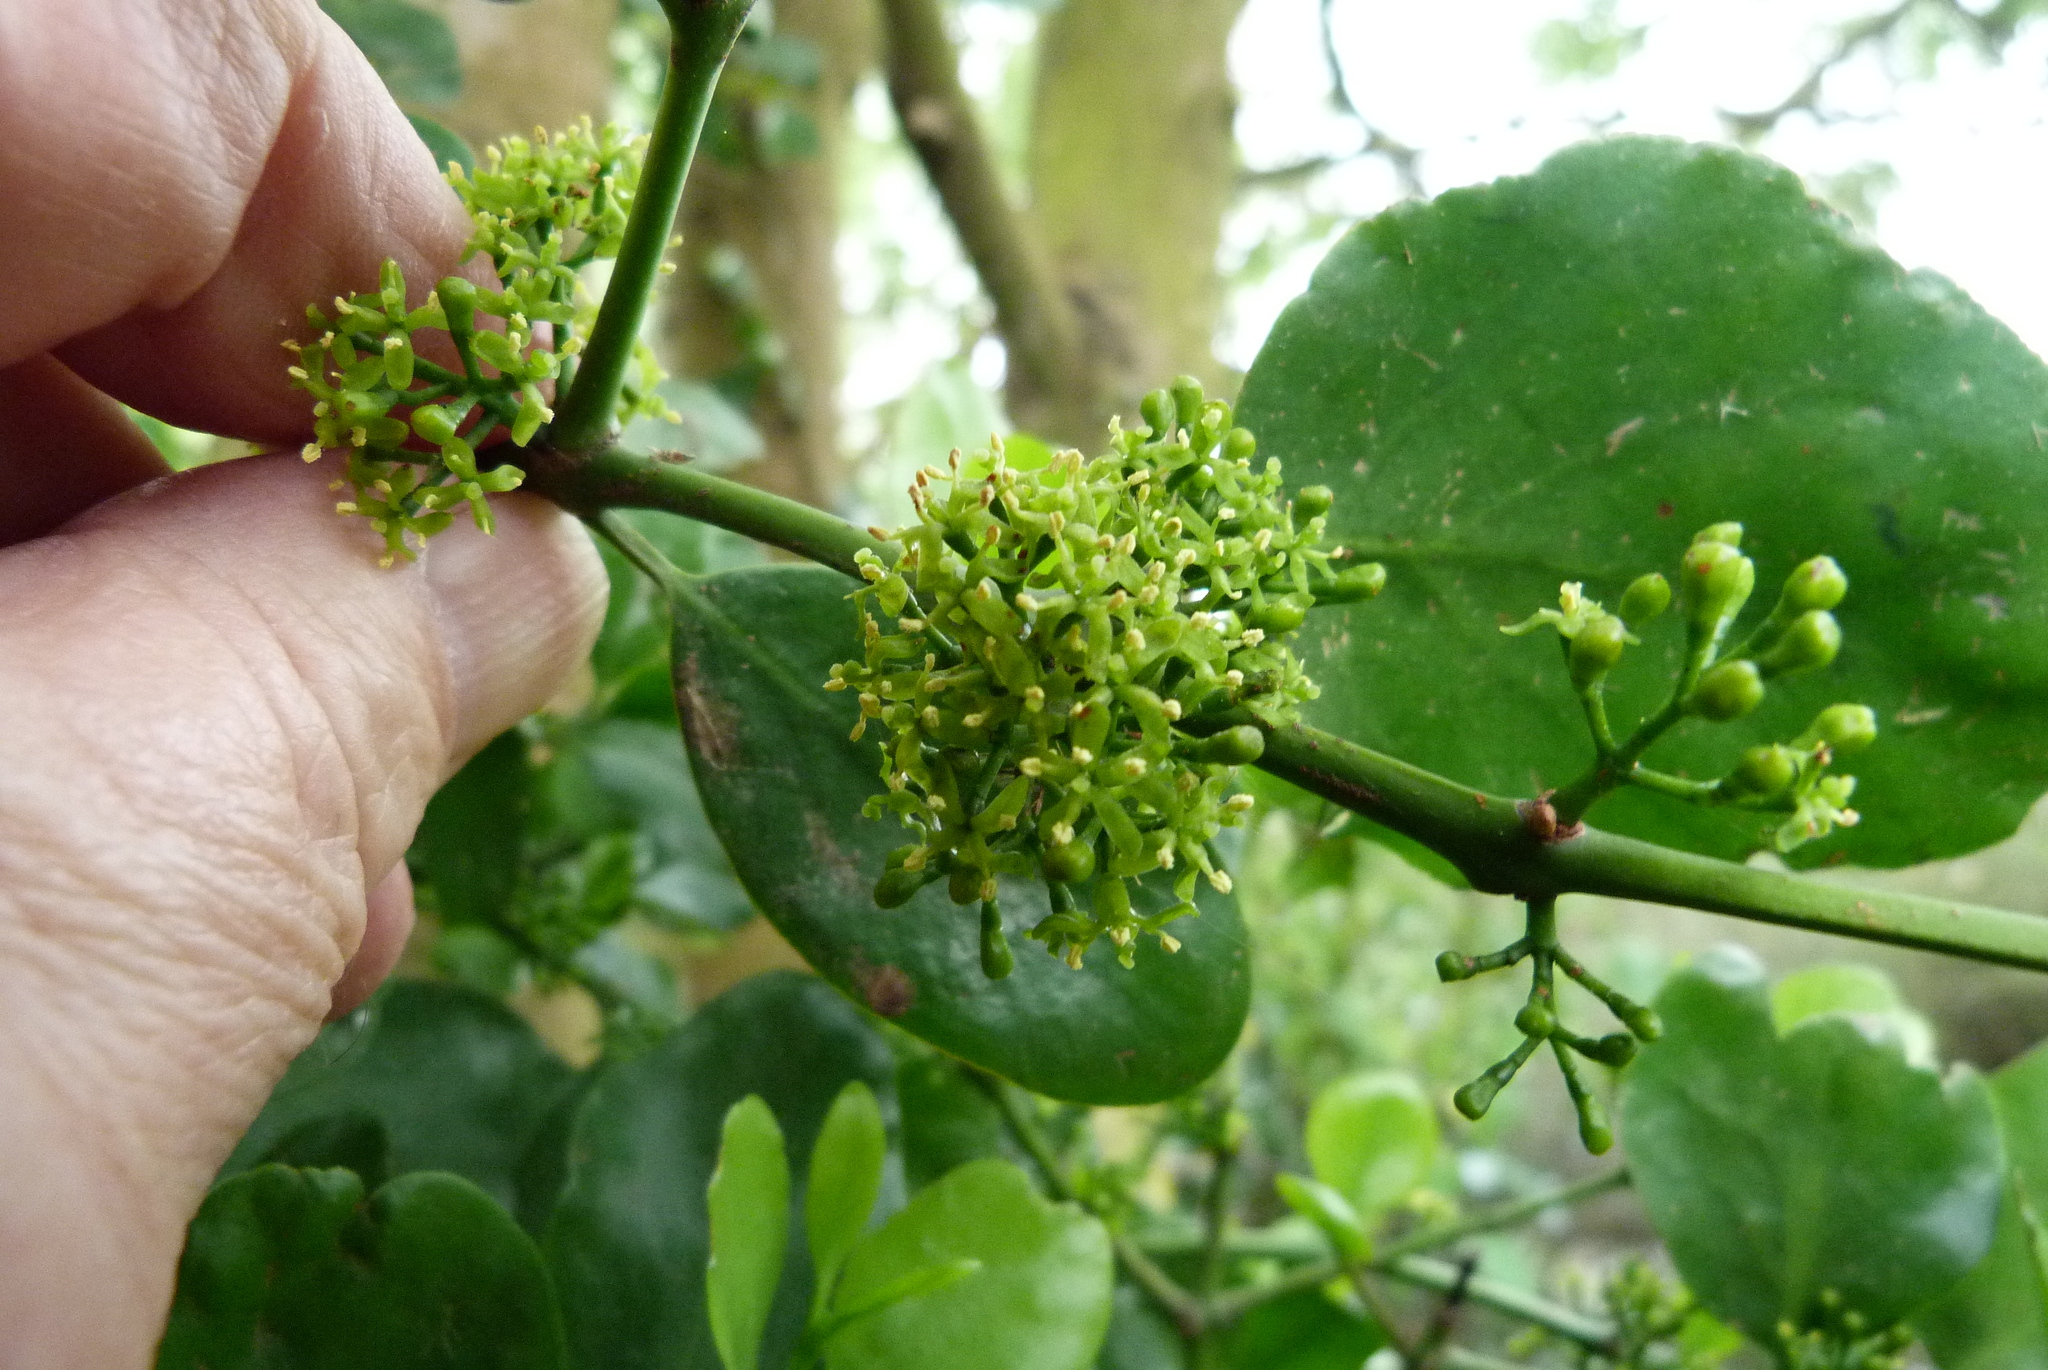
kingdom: Plantae
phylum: Tracheophyta
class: Magnoliopsida
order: Santalales
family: Loranthaceae
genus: Ileostylus
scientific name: Ileostylus micranthus
